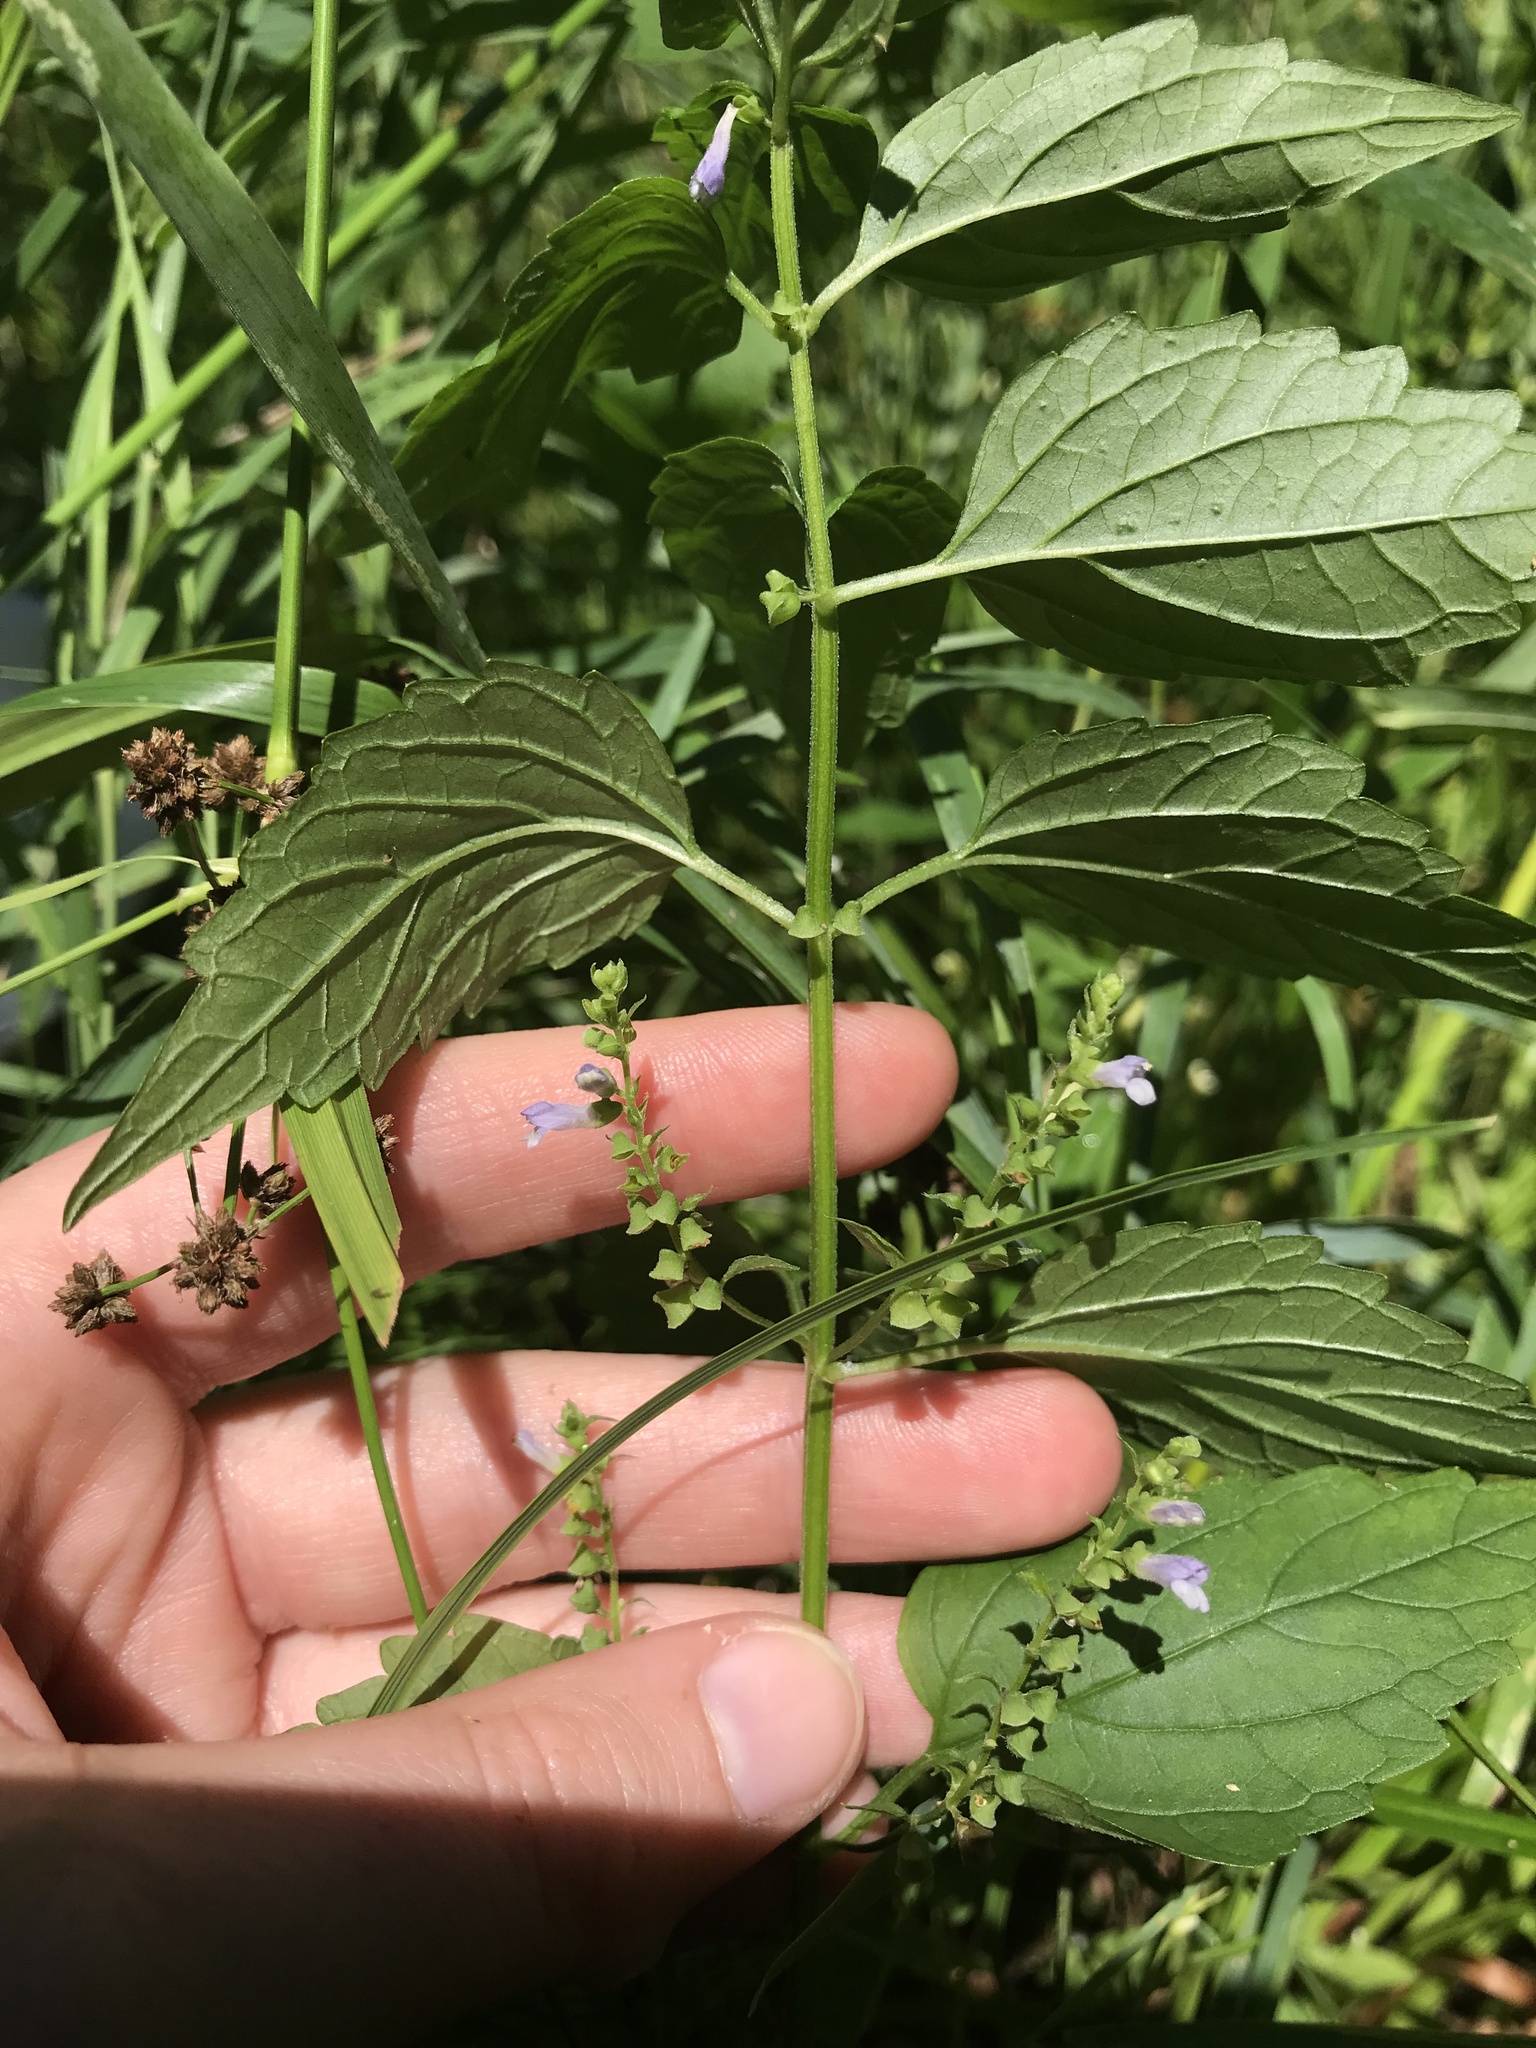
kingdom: Plantae
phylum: Tracheophyta
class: Magnoliopsida
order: Lamiales
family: Lamiaceae
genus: Scutellaria
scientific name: Scutellaria lateriflora
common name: Blue skullcap
